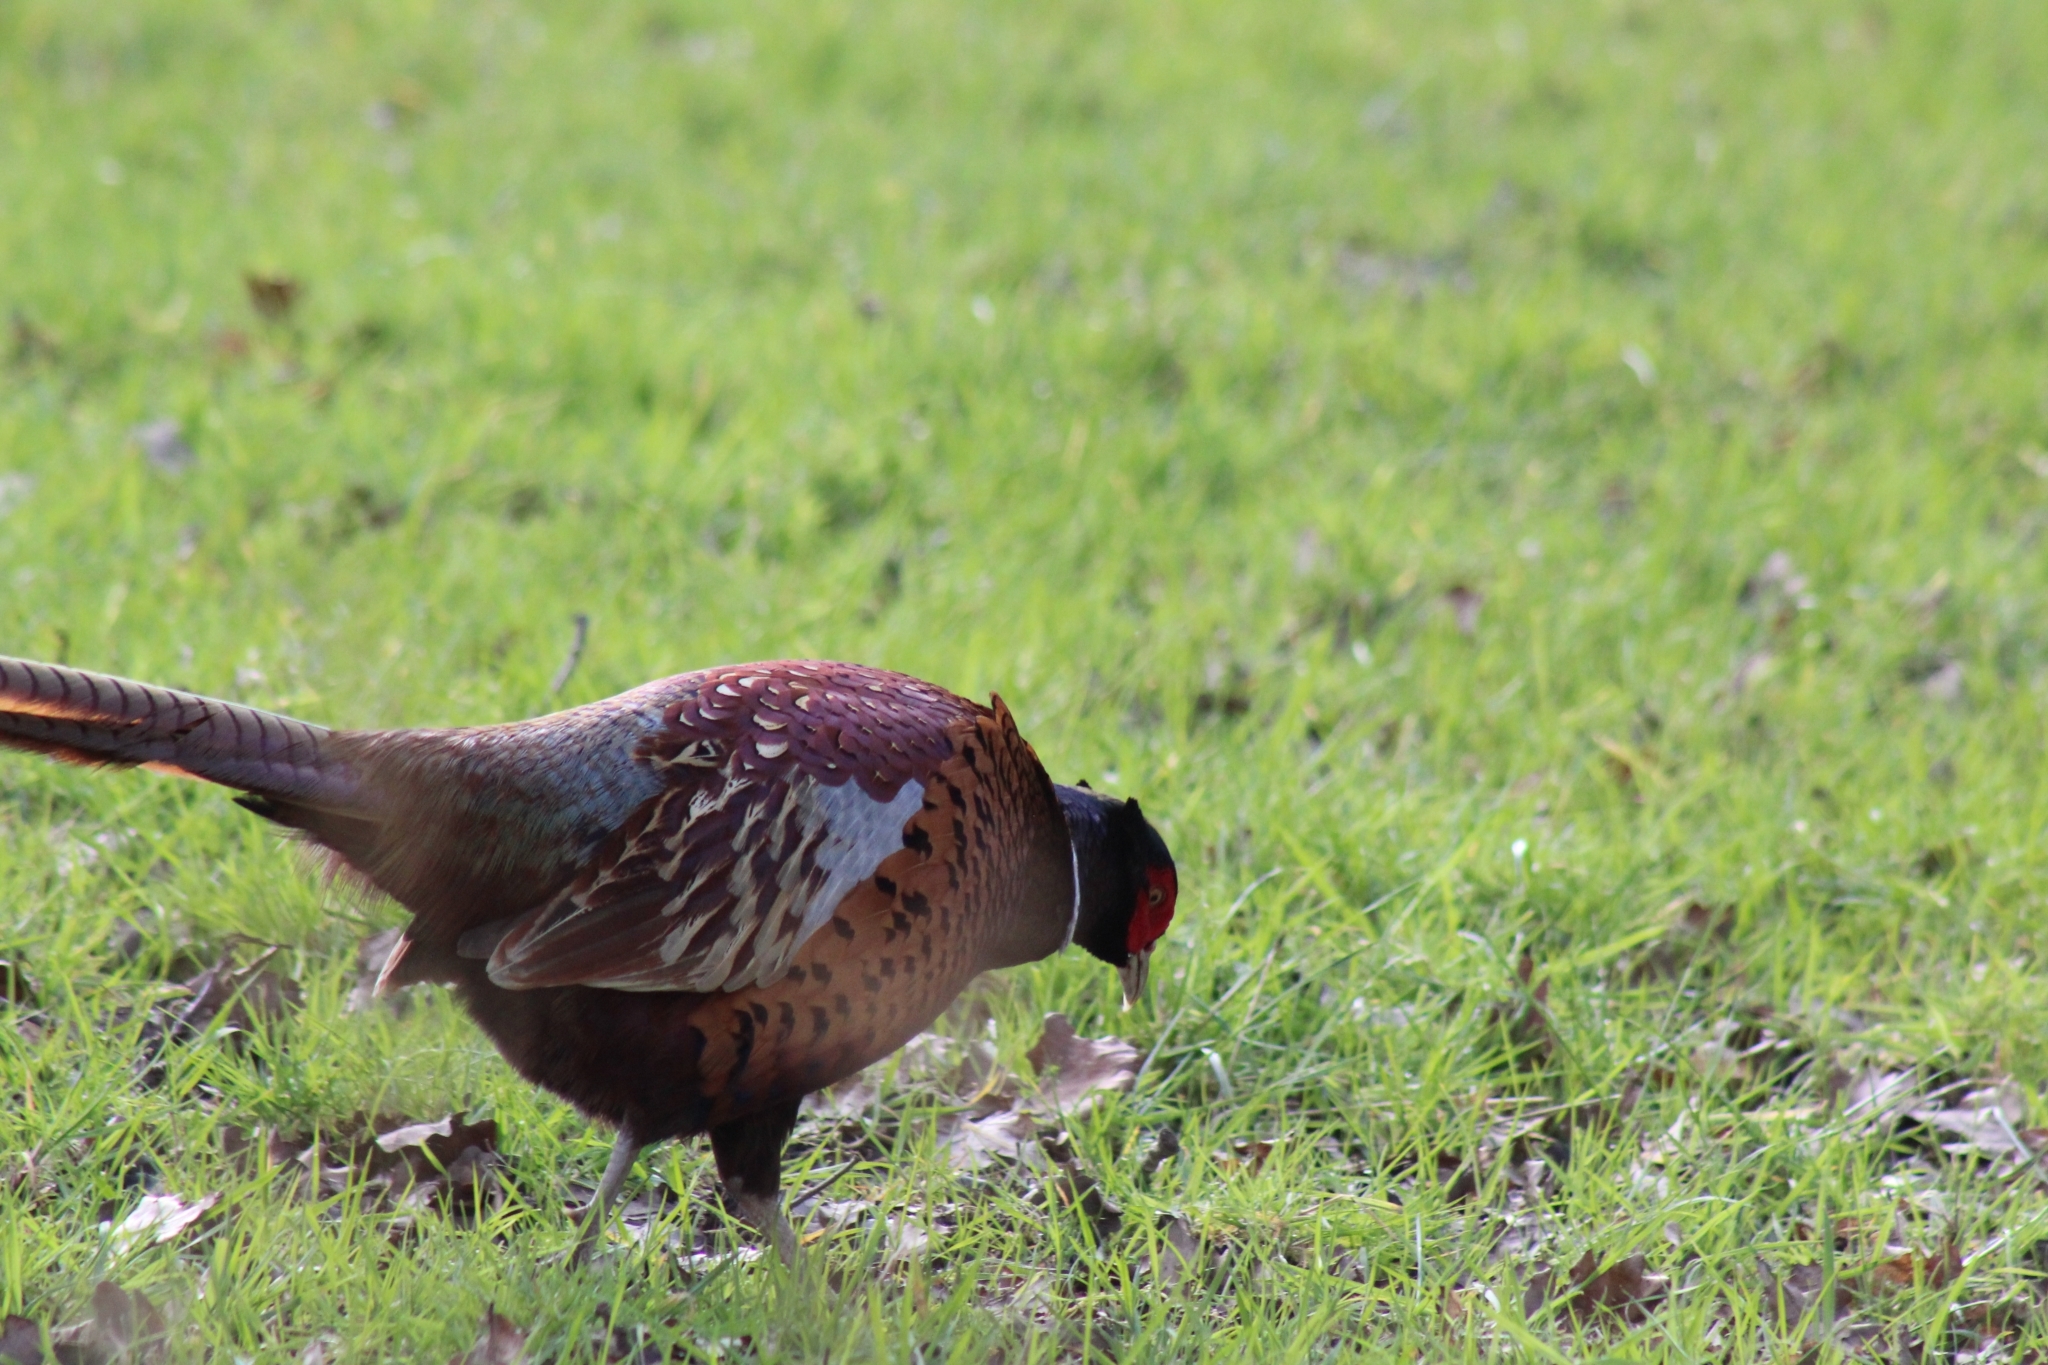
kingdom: Animalia
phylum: Chordata
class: Aves
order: Galliformes
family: Phasianidae
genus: Phasianus
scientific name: Phasianus colchicus
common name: Common pheasant
